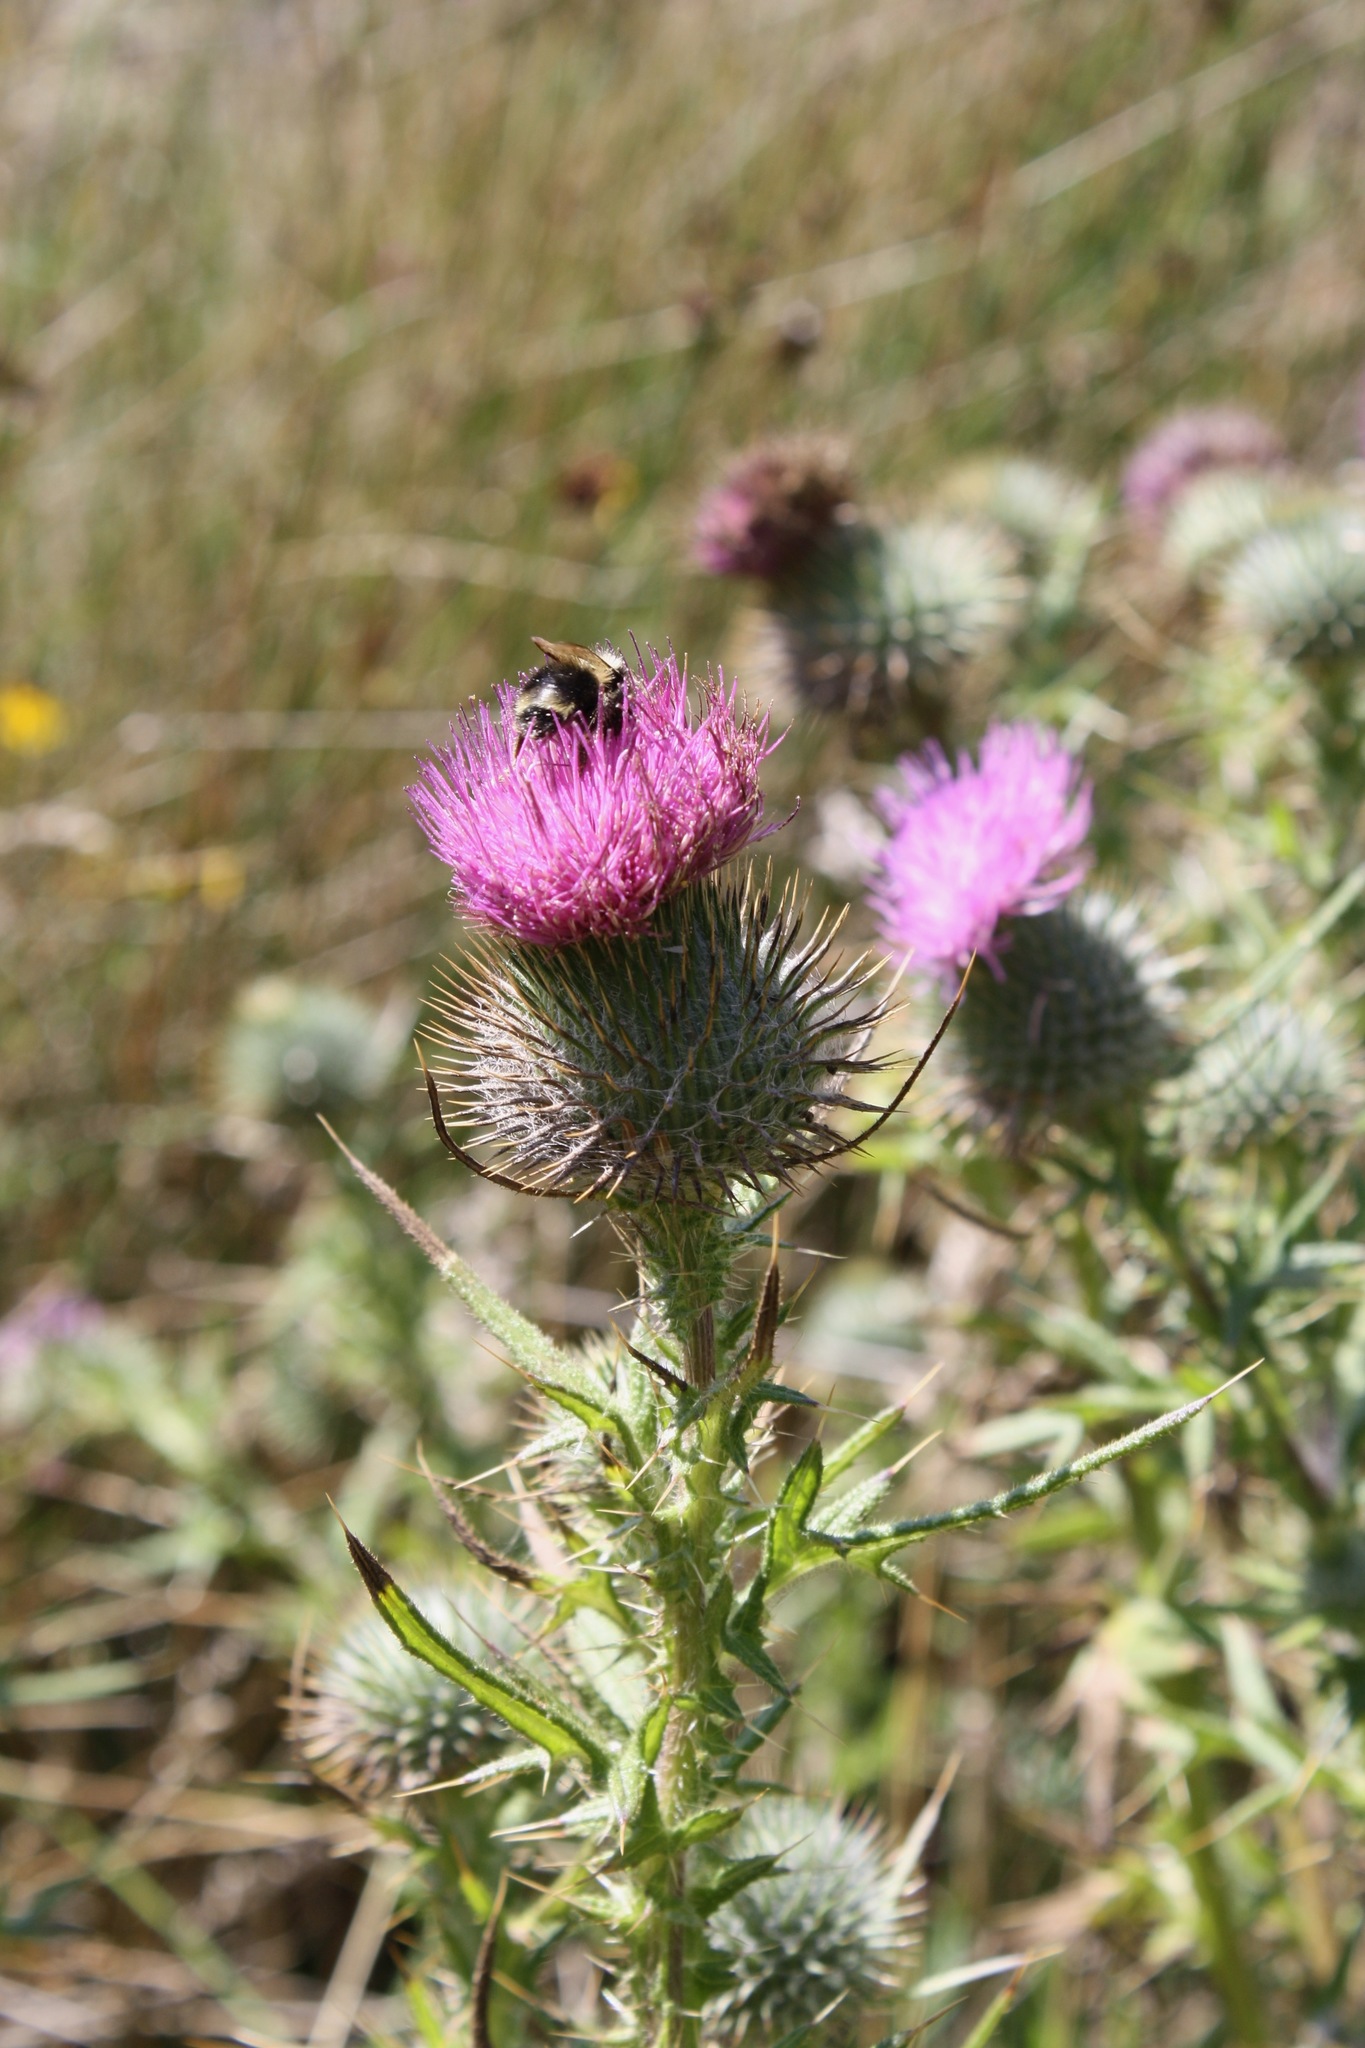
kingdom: Plantae
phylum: Tracheophyta
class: Magnoliopsida
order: Asterales
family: Asteraceae
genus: Cirsium
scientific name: Cirsium vulgare
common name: Bull thistle
